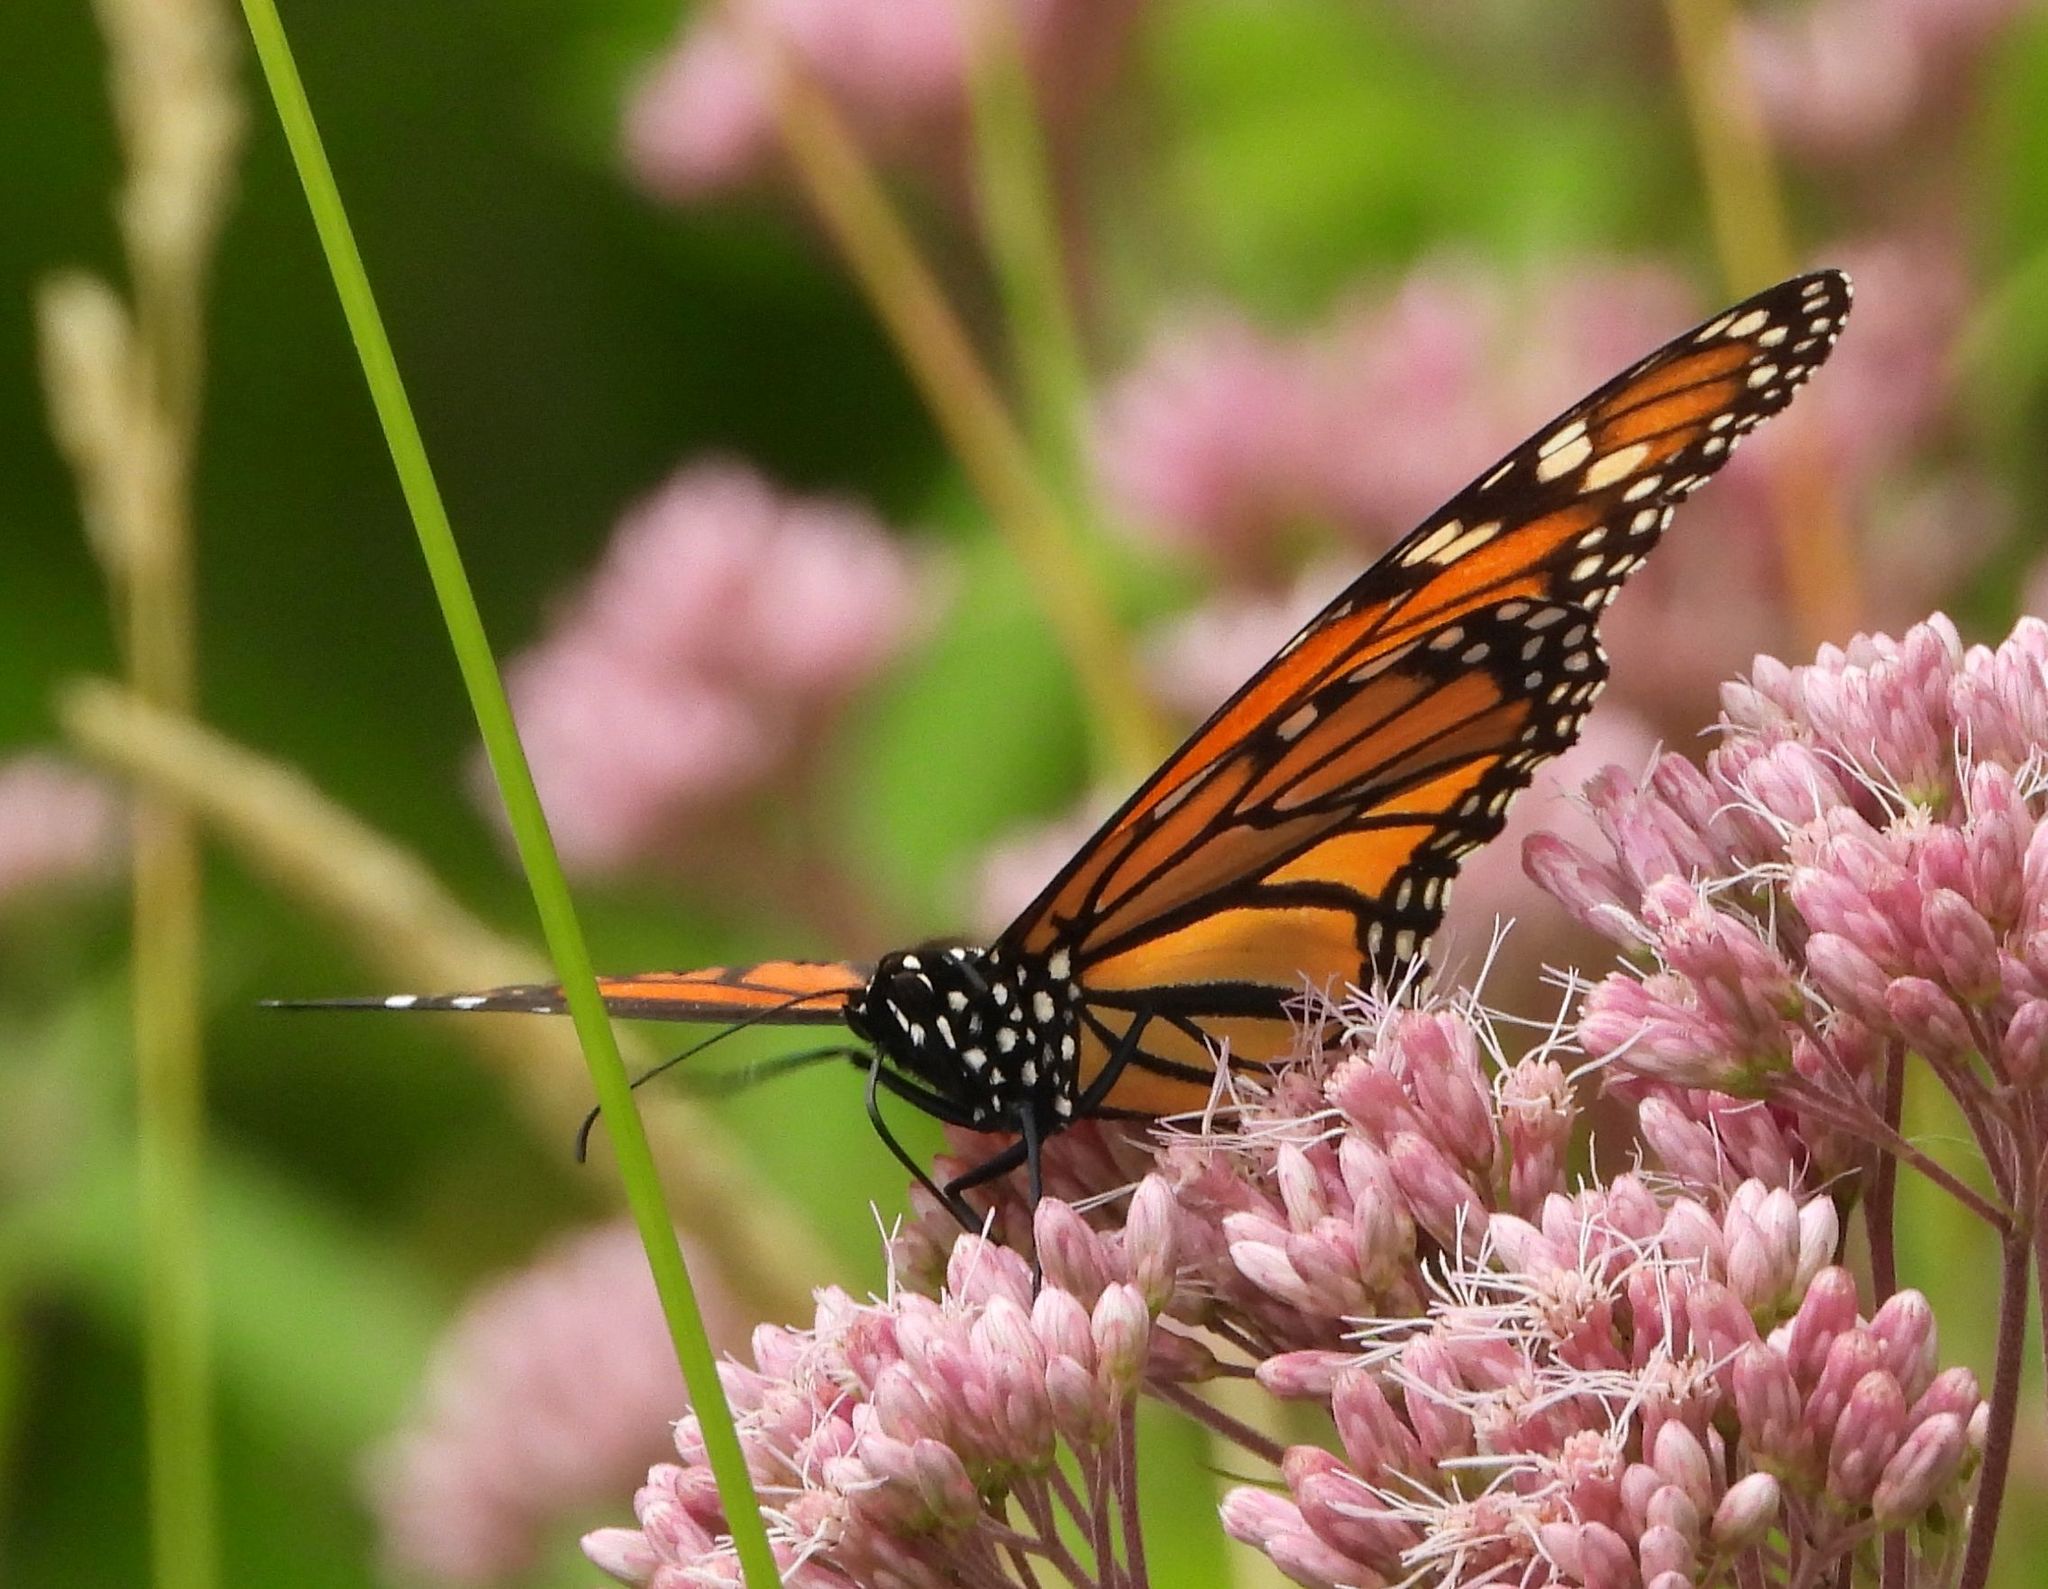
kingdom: Animalia
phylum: Arthropoda
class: Insecta
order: Lepidoptera
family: Nymphalidae
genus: Danaus
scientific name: Danaus plexippus
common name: Monarch
